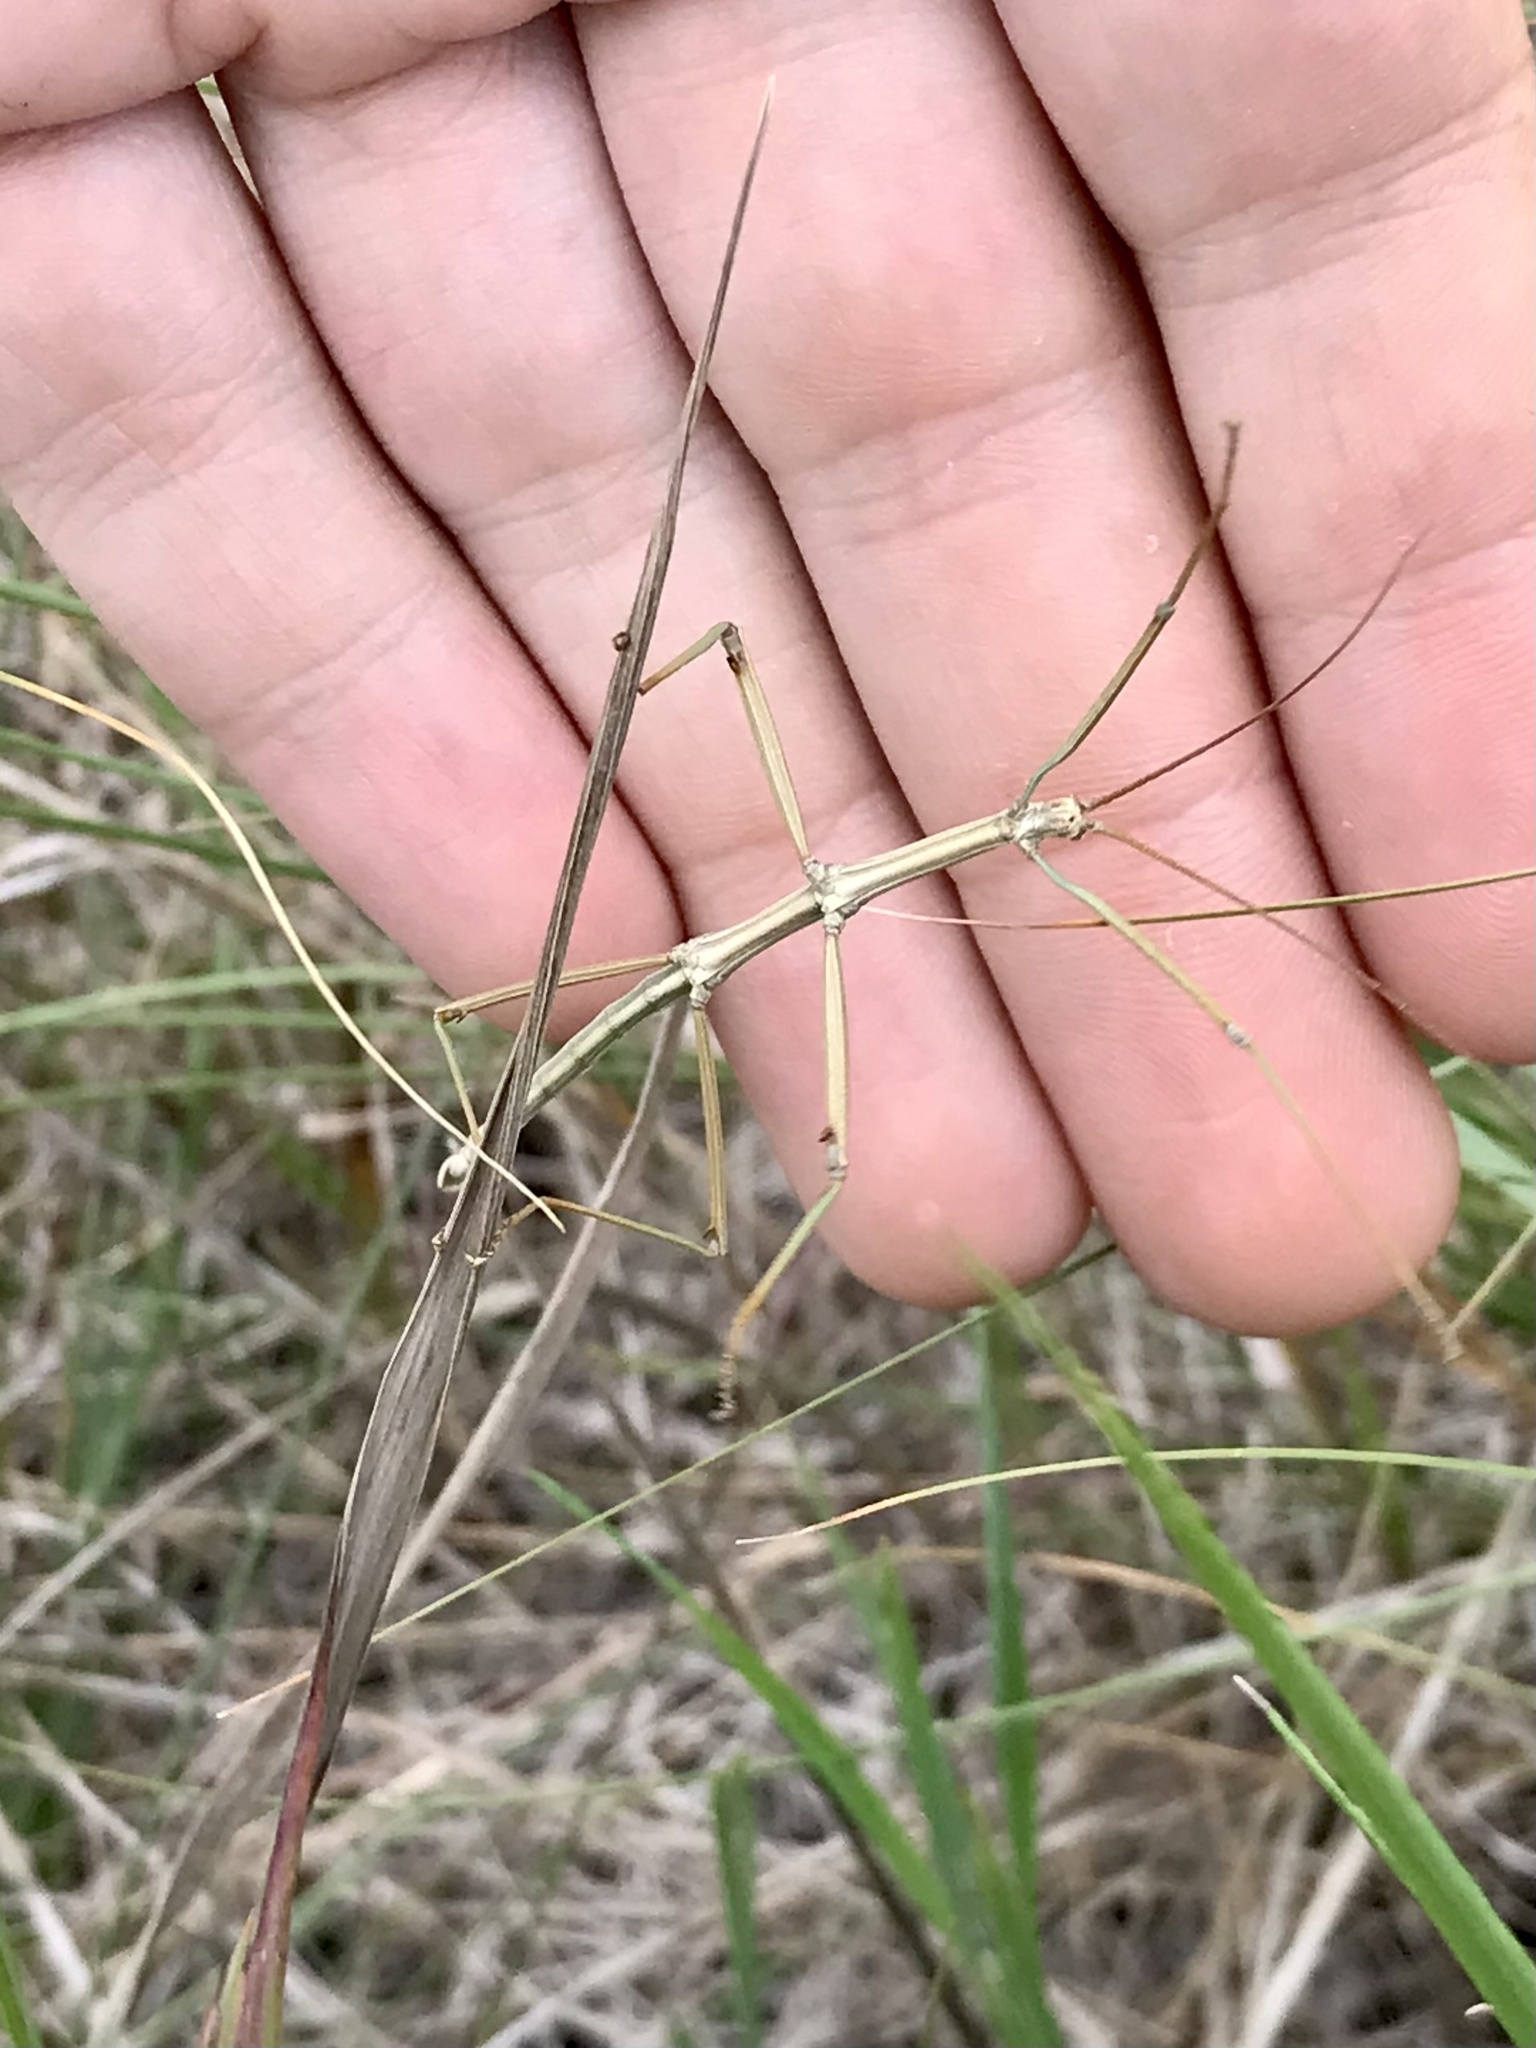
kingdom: Animalia
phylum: Arthropoda
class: Insecta
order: Phasmida
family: Diapheromeridae
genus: Diapheromera
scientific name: Diapheromera velii
